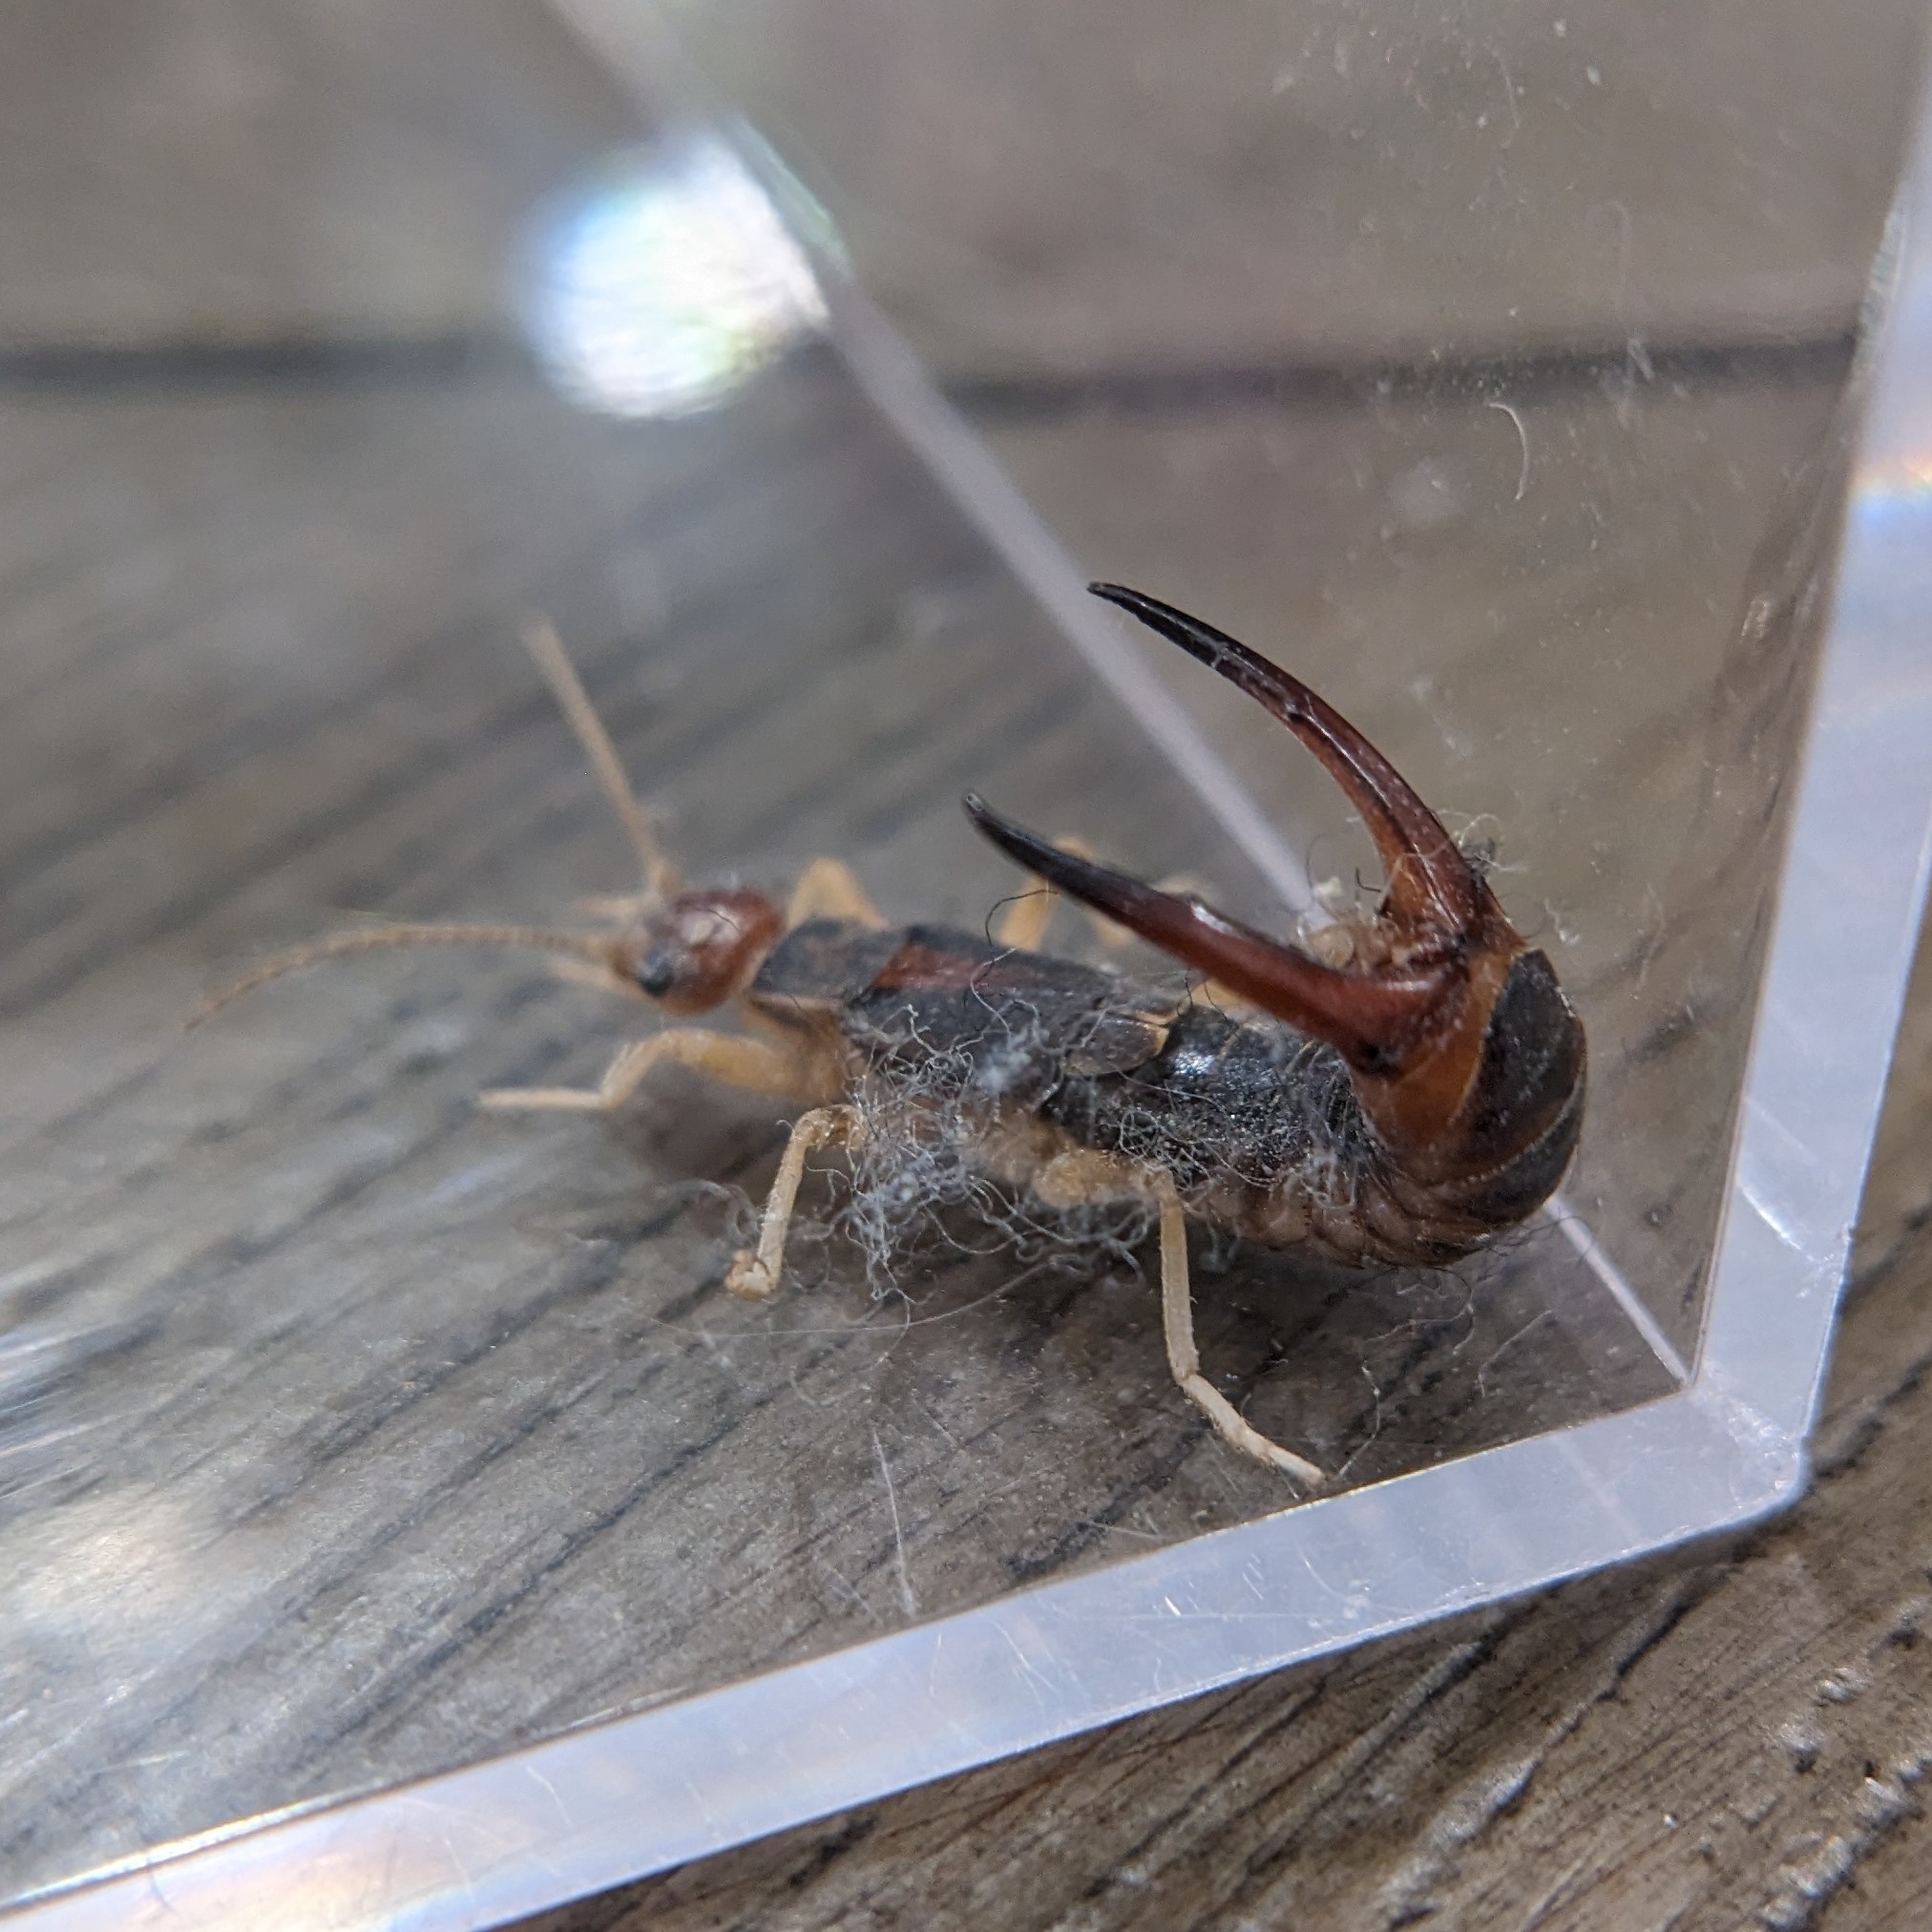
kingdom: Animalia
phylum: Arthropoda
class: Insecta
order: Dermaptera
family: Labiduridae
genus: Labidura
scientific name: Labidura riparia
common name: Striped earwig
